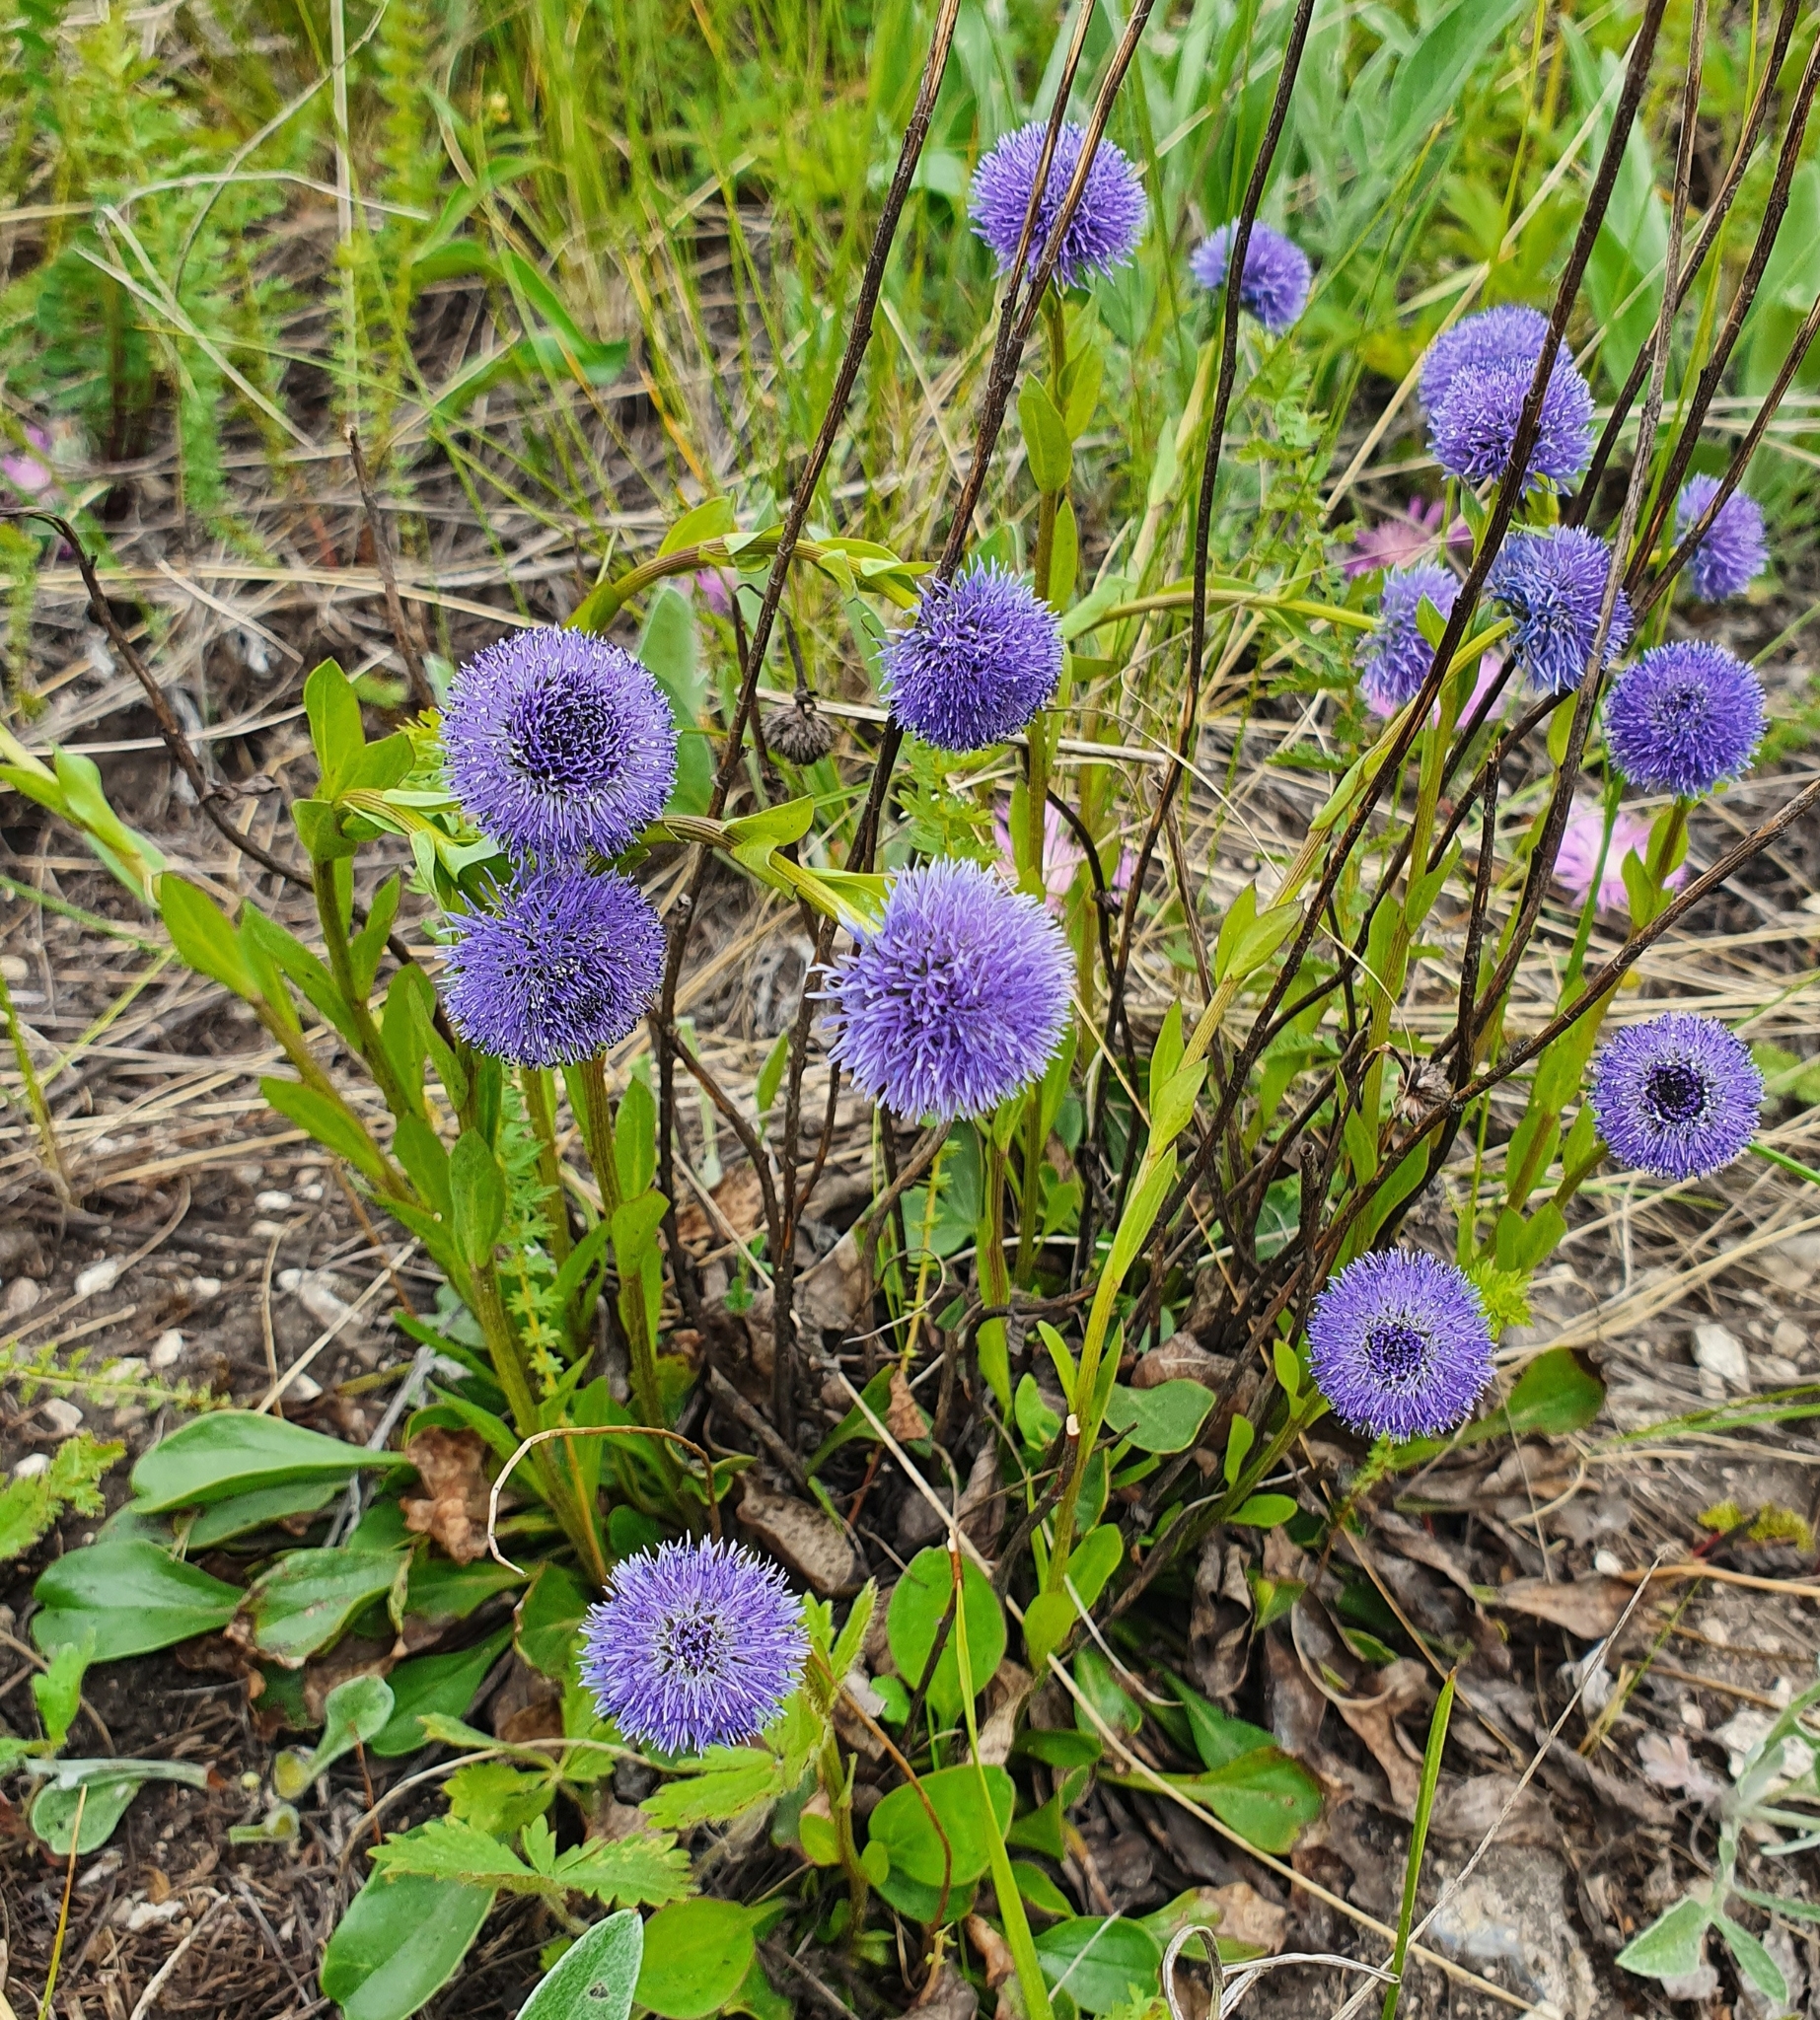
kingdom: Plantae
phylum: Tracheophyta
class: Magnoliopsida
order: Lamiales
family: Plantaginaceae
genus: Globularia
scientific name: Globularia bisnagarica
